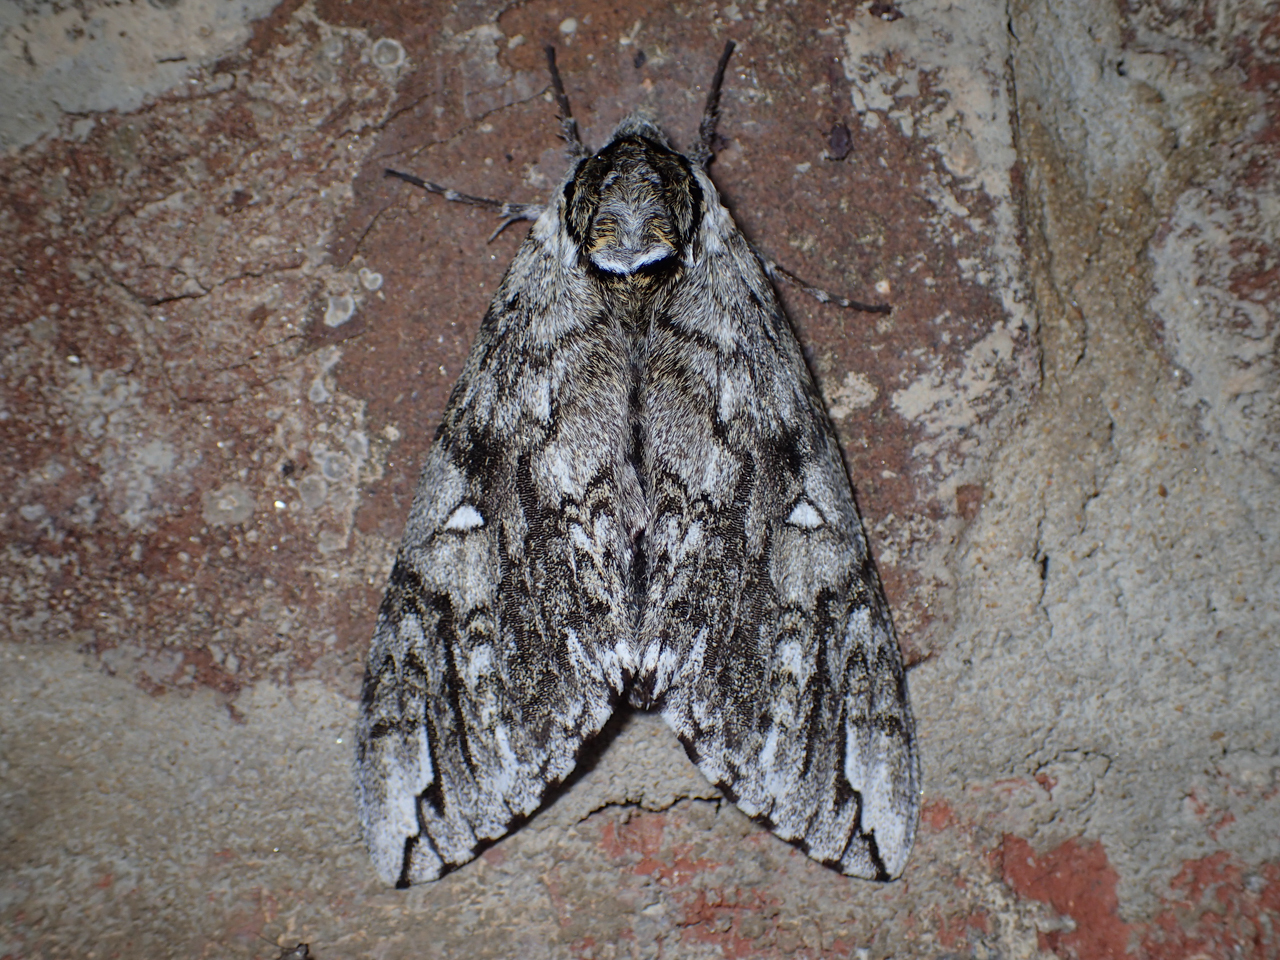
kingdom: Animalia
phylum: Arthropoda
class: Insecta
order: Lepidoptera
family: Sphingidae
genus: Ceratomia
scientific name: Ceratomia undulosa
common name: Waved sphinx
